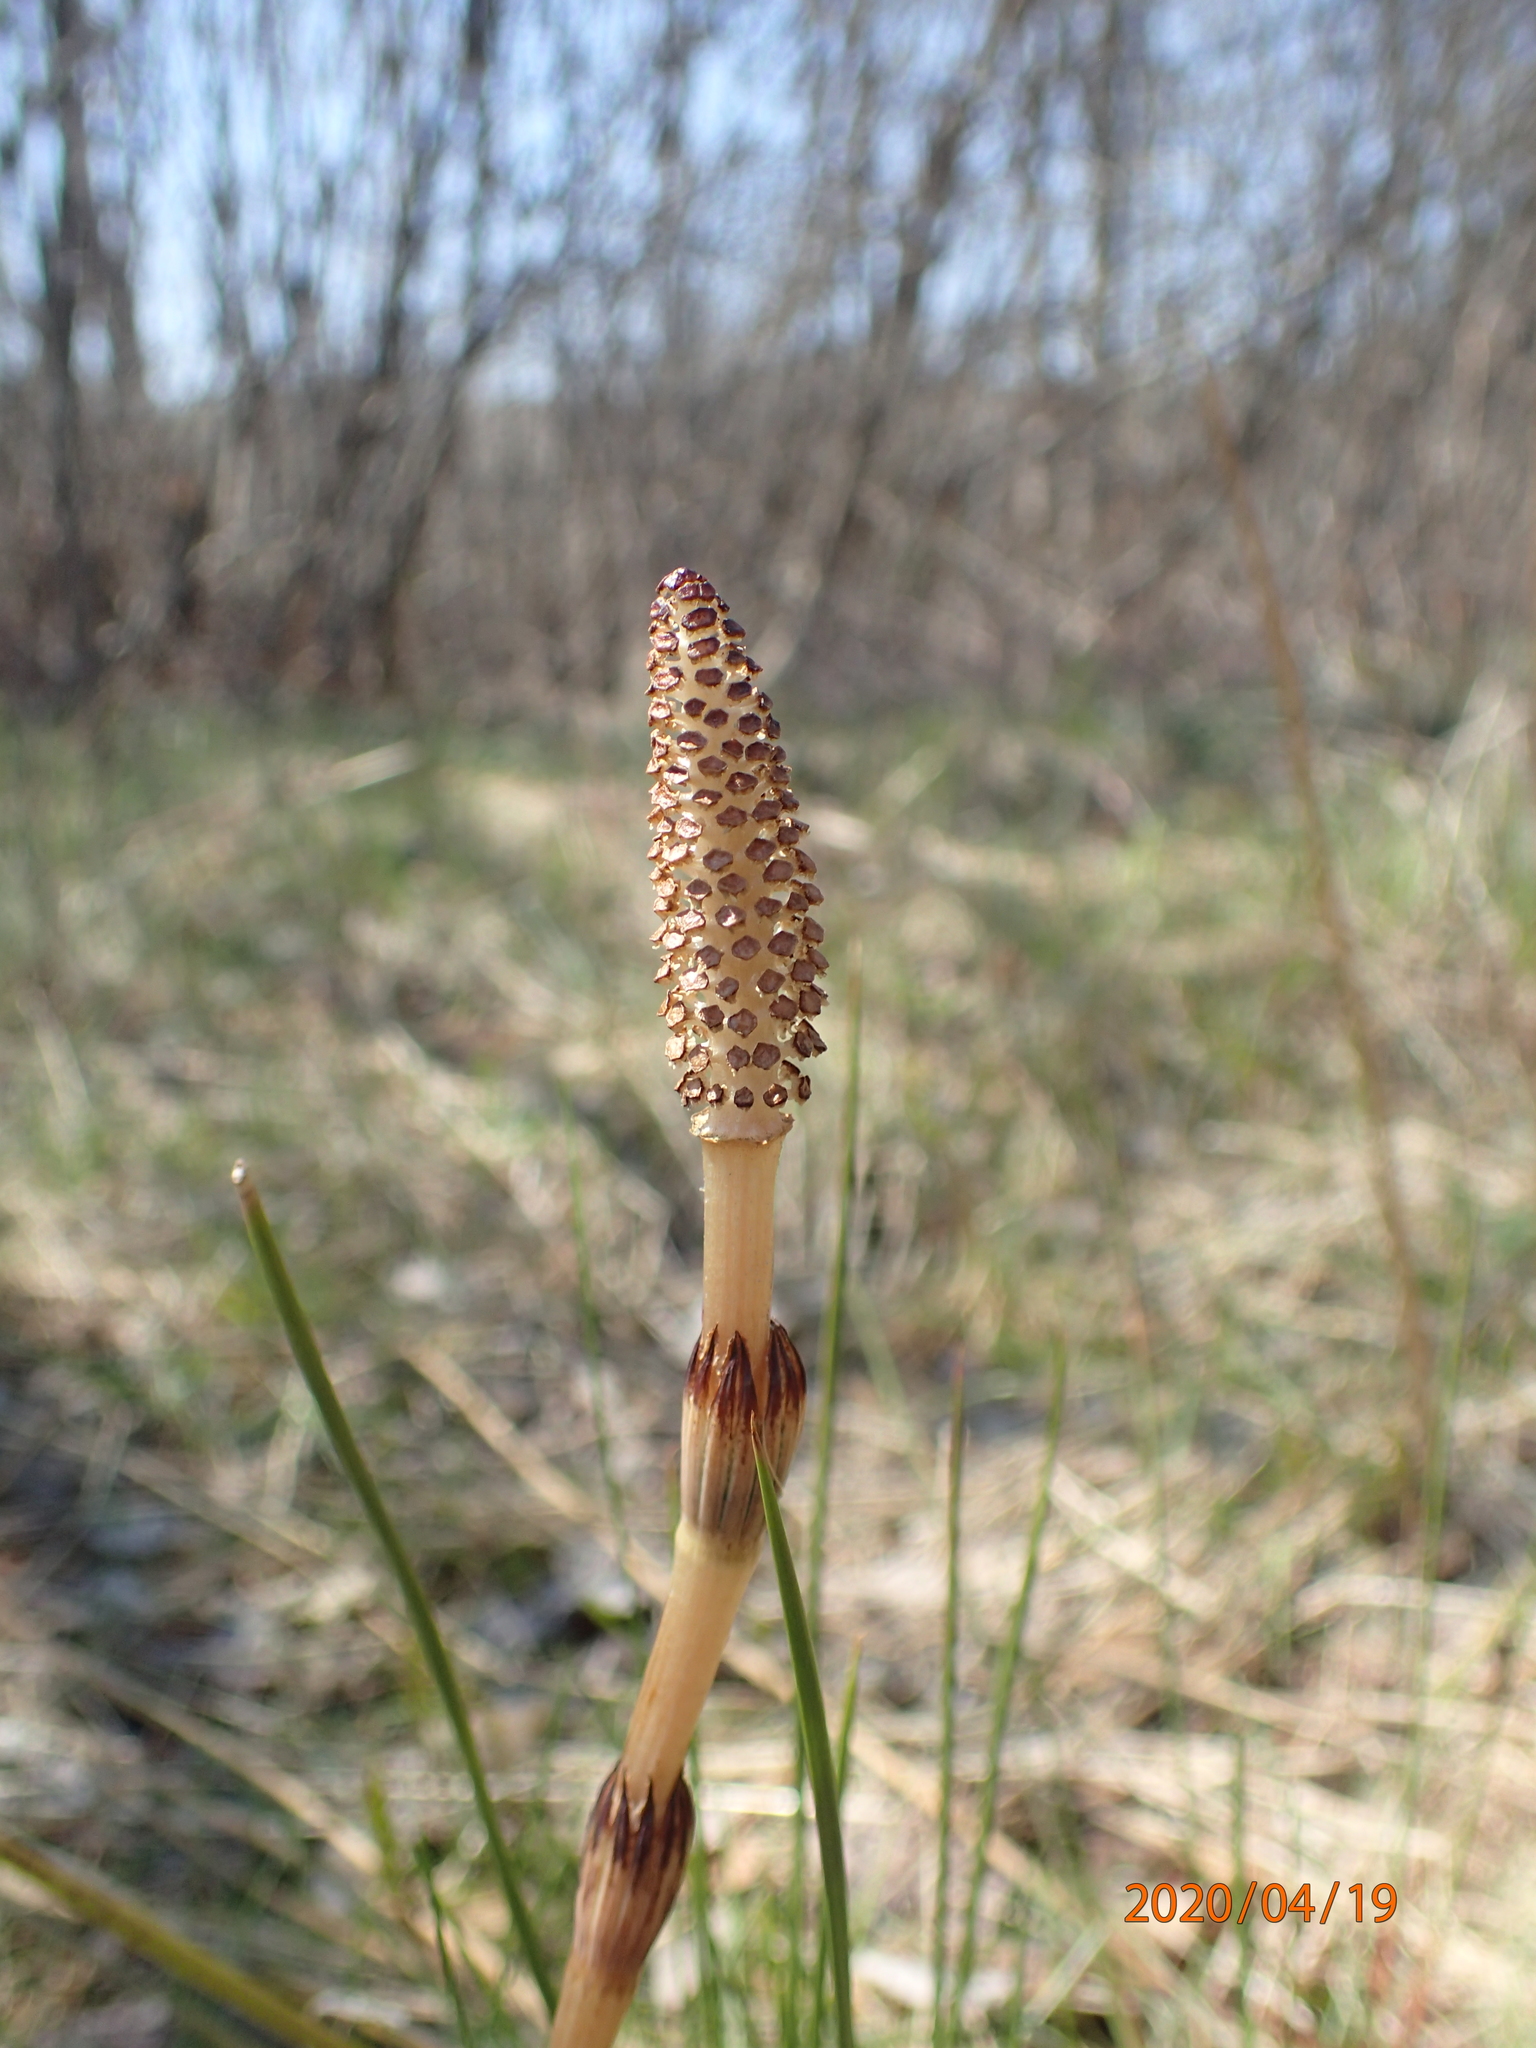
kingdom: Plantae
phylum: Tracheophyta
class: Polypodiopsida
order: Equisetales
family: Equisetaceae
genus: Equisetum
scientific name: Equisetum arvense
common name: Field horsetail
